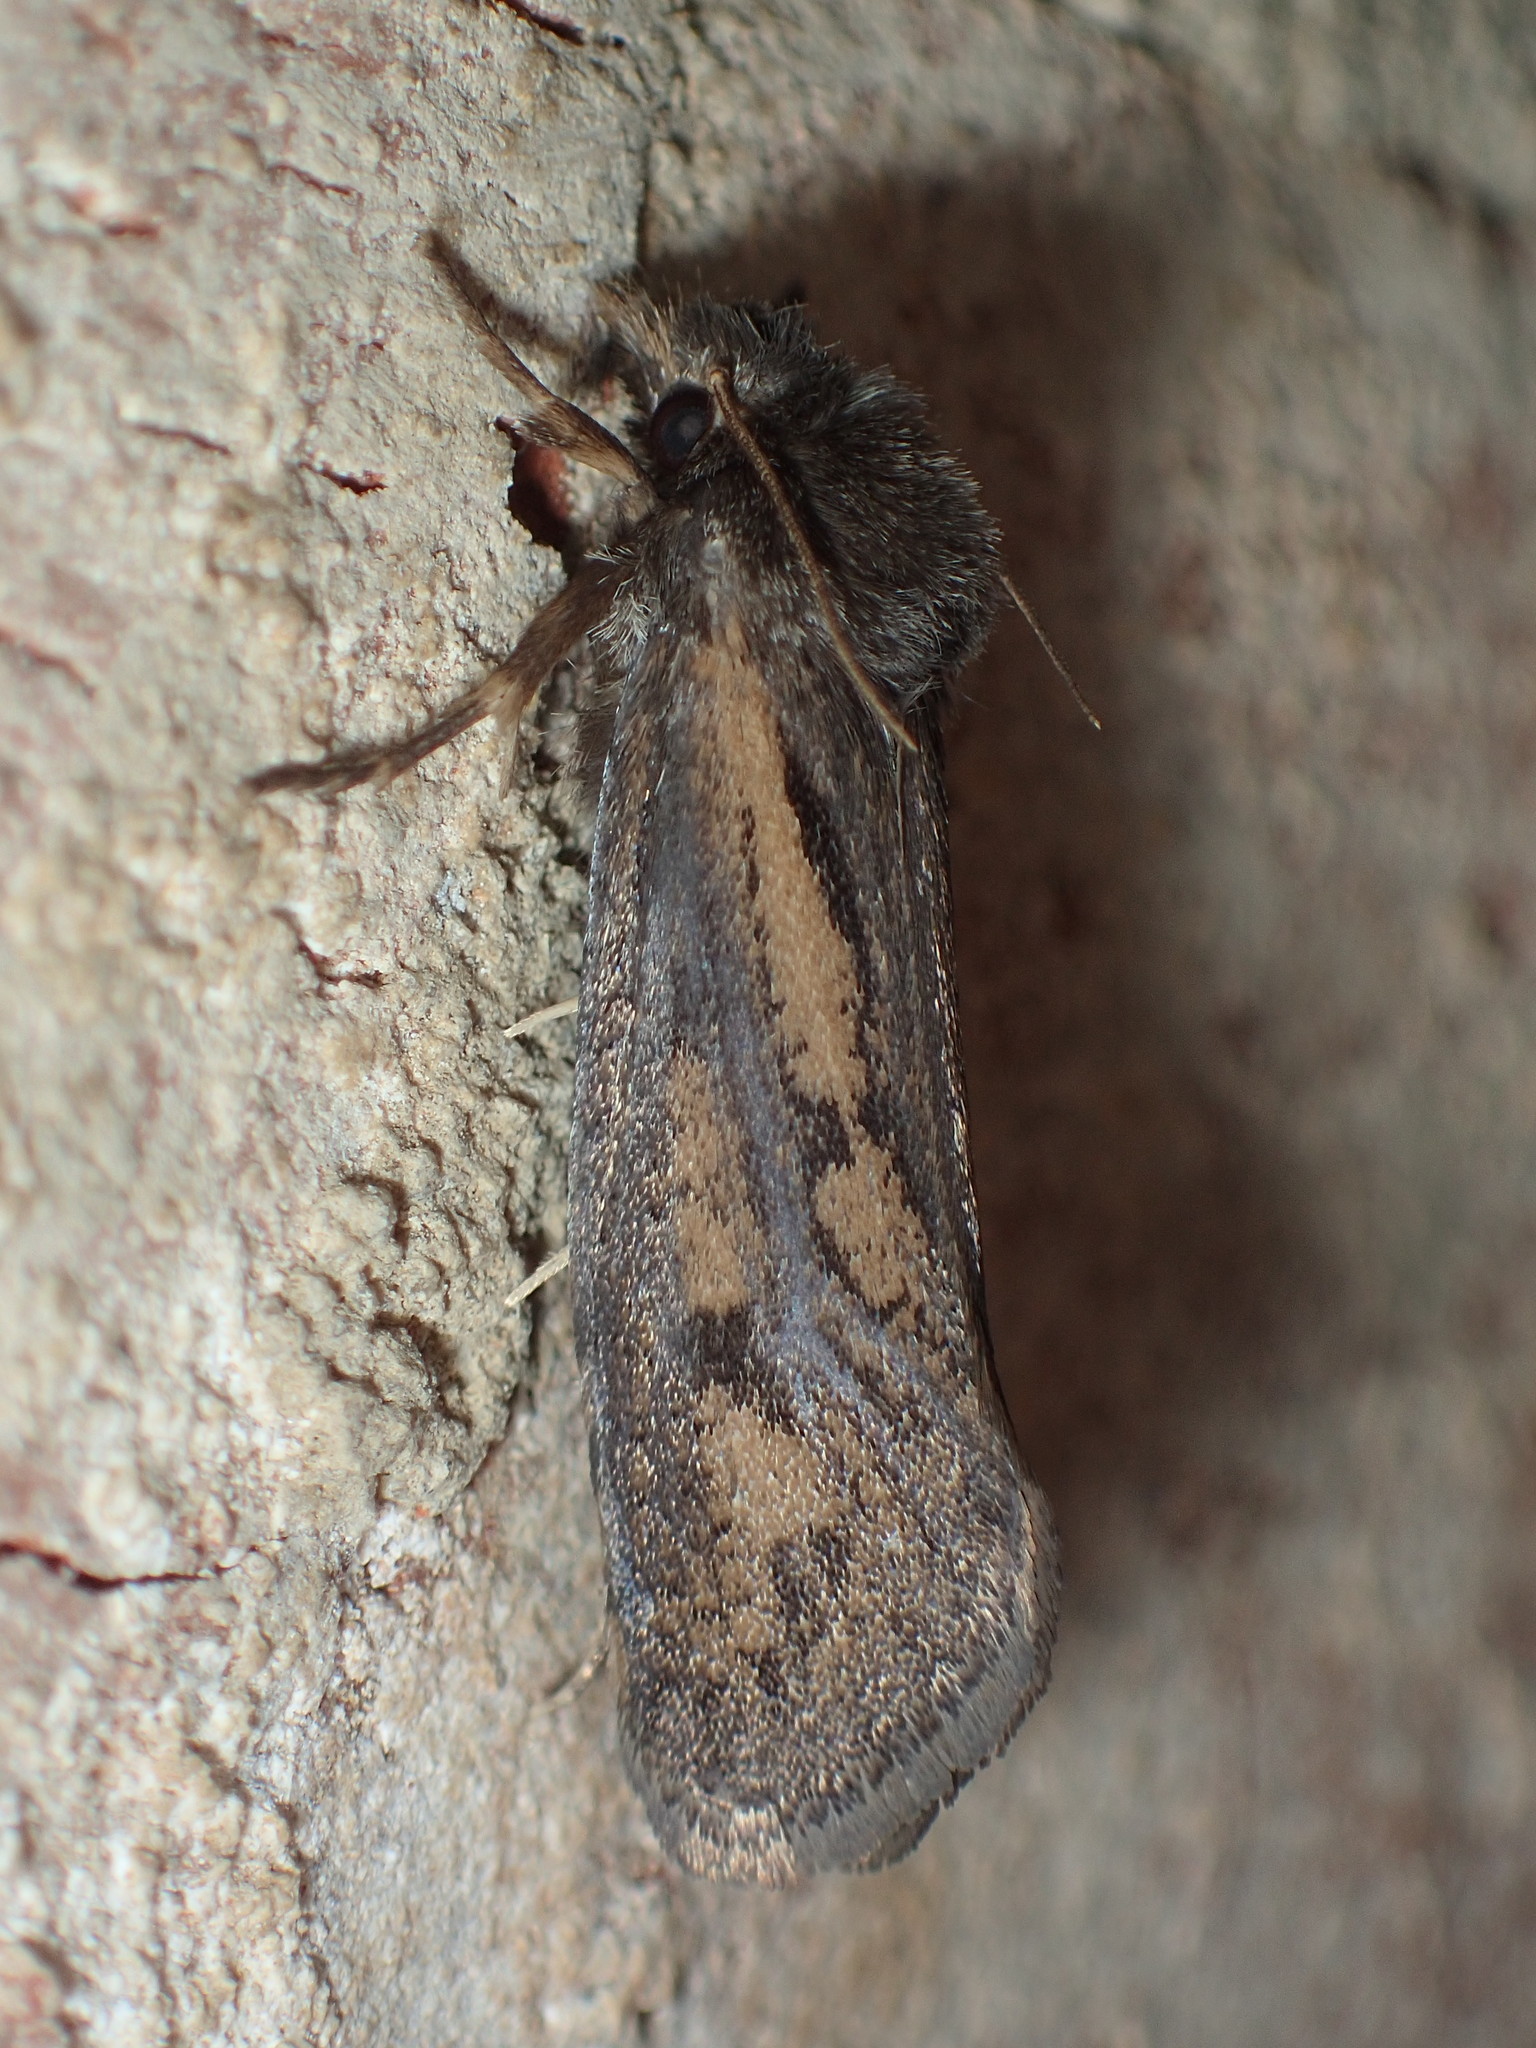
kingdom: Animalia
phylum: Arthropoda
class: Insecta
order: Lepidoptera
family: Tineidae
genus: Acrolophus
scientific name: Acrolophus popeanella
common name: Clemens' grass tubeworm moth
